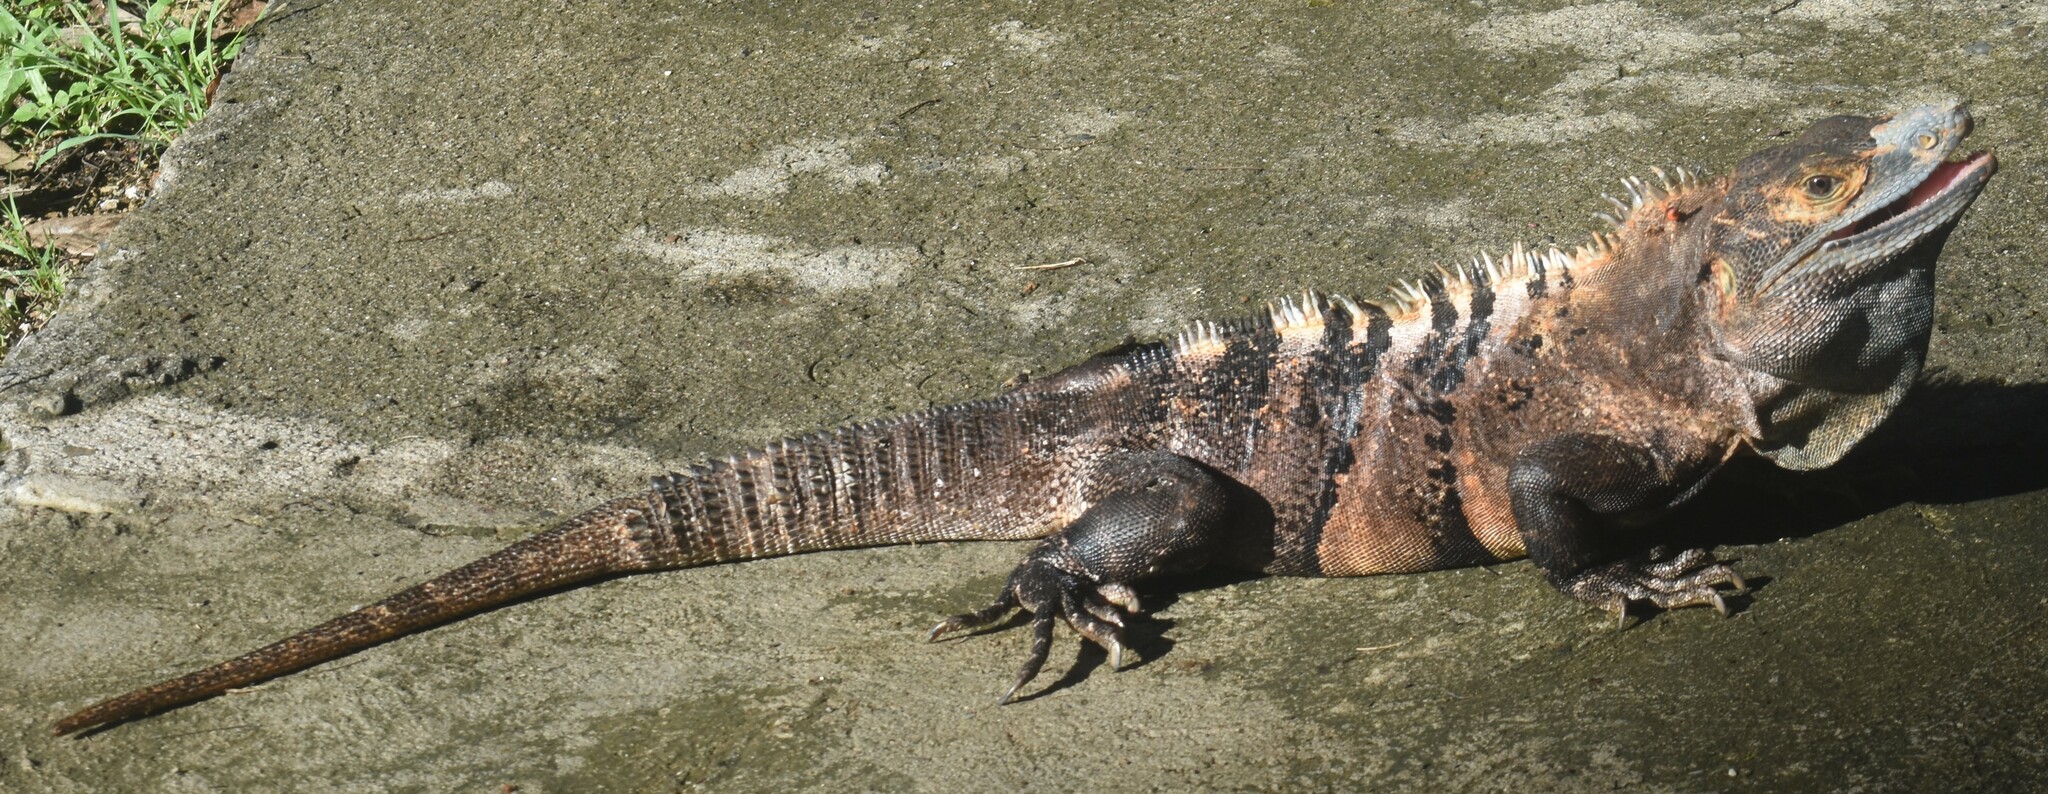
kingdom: Animalia
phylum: Chordata
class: Squamata
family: Iguanidae
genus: Ctenosaura
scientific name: Ctenosaura similis
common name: Black spiny-tailed iguana
